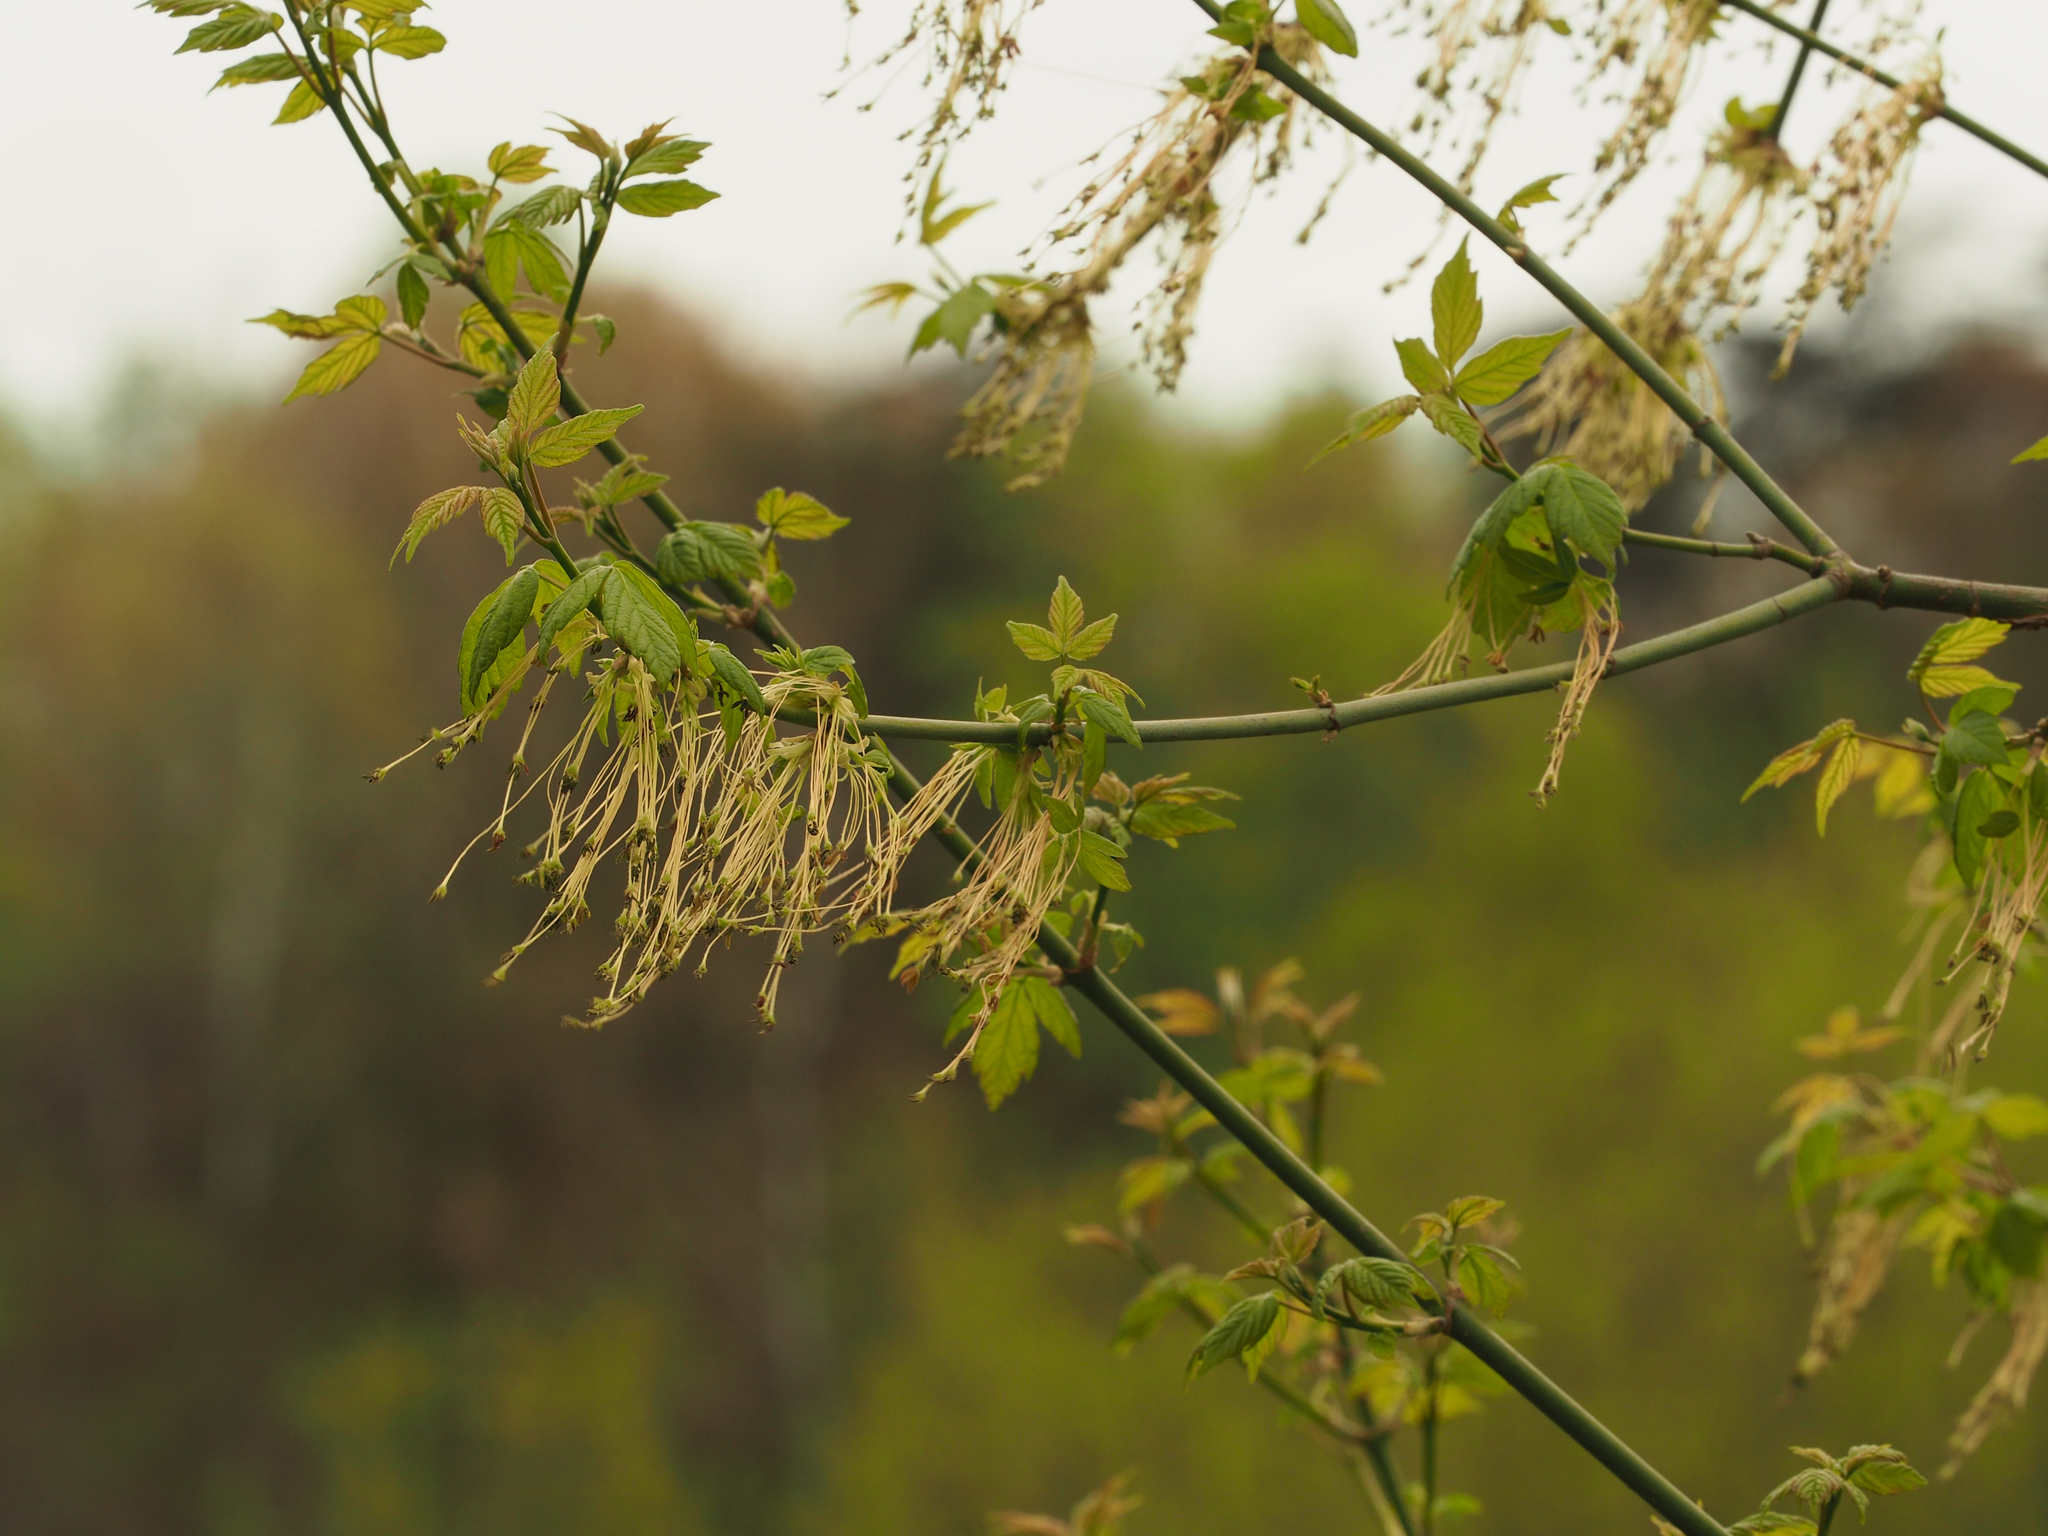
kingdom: Plantae
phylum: Tracheophyta
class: Magnoliopsida
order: Sapindales
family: Sapindaceae
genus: Acer
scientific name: Acer negundo
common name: Ashleaf maple
